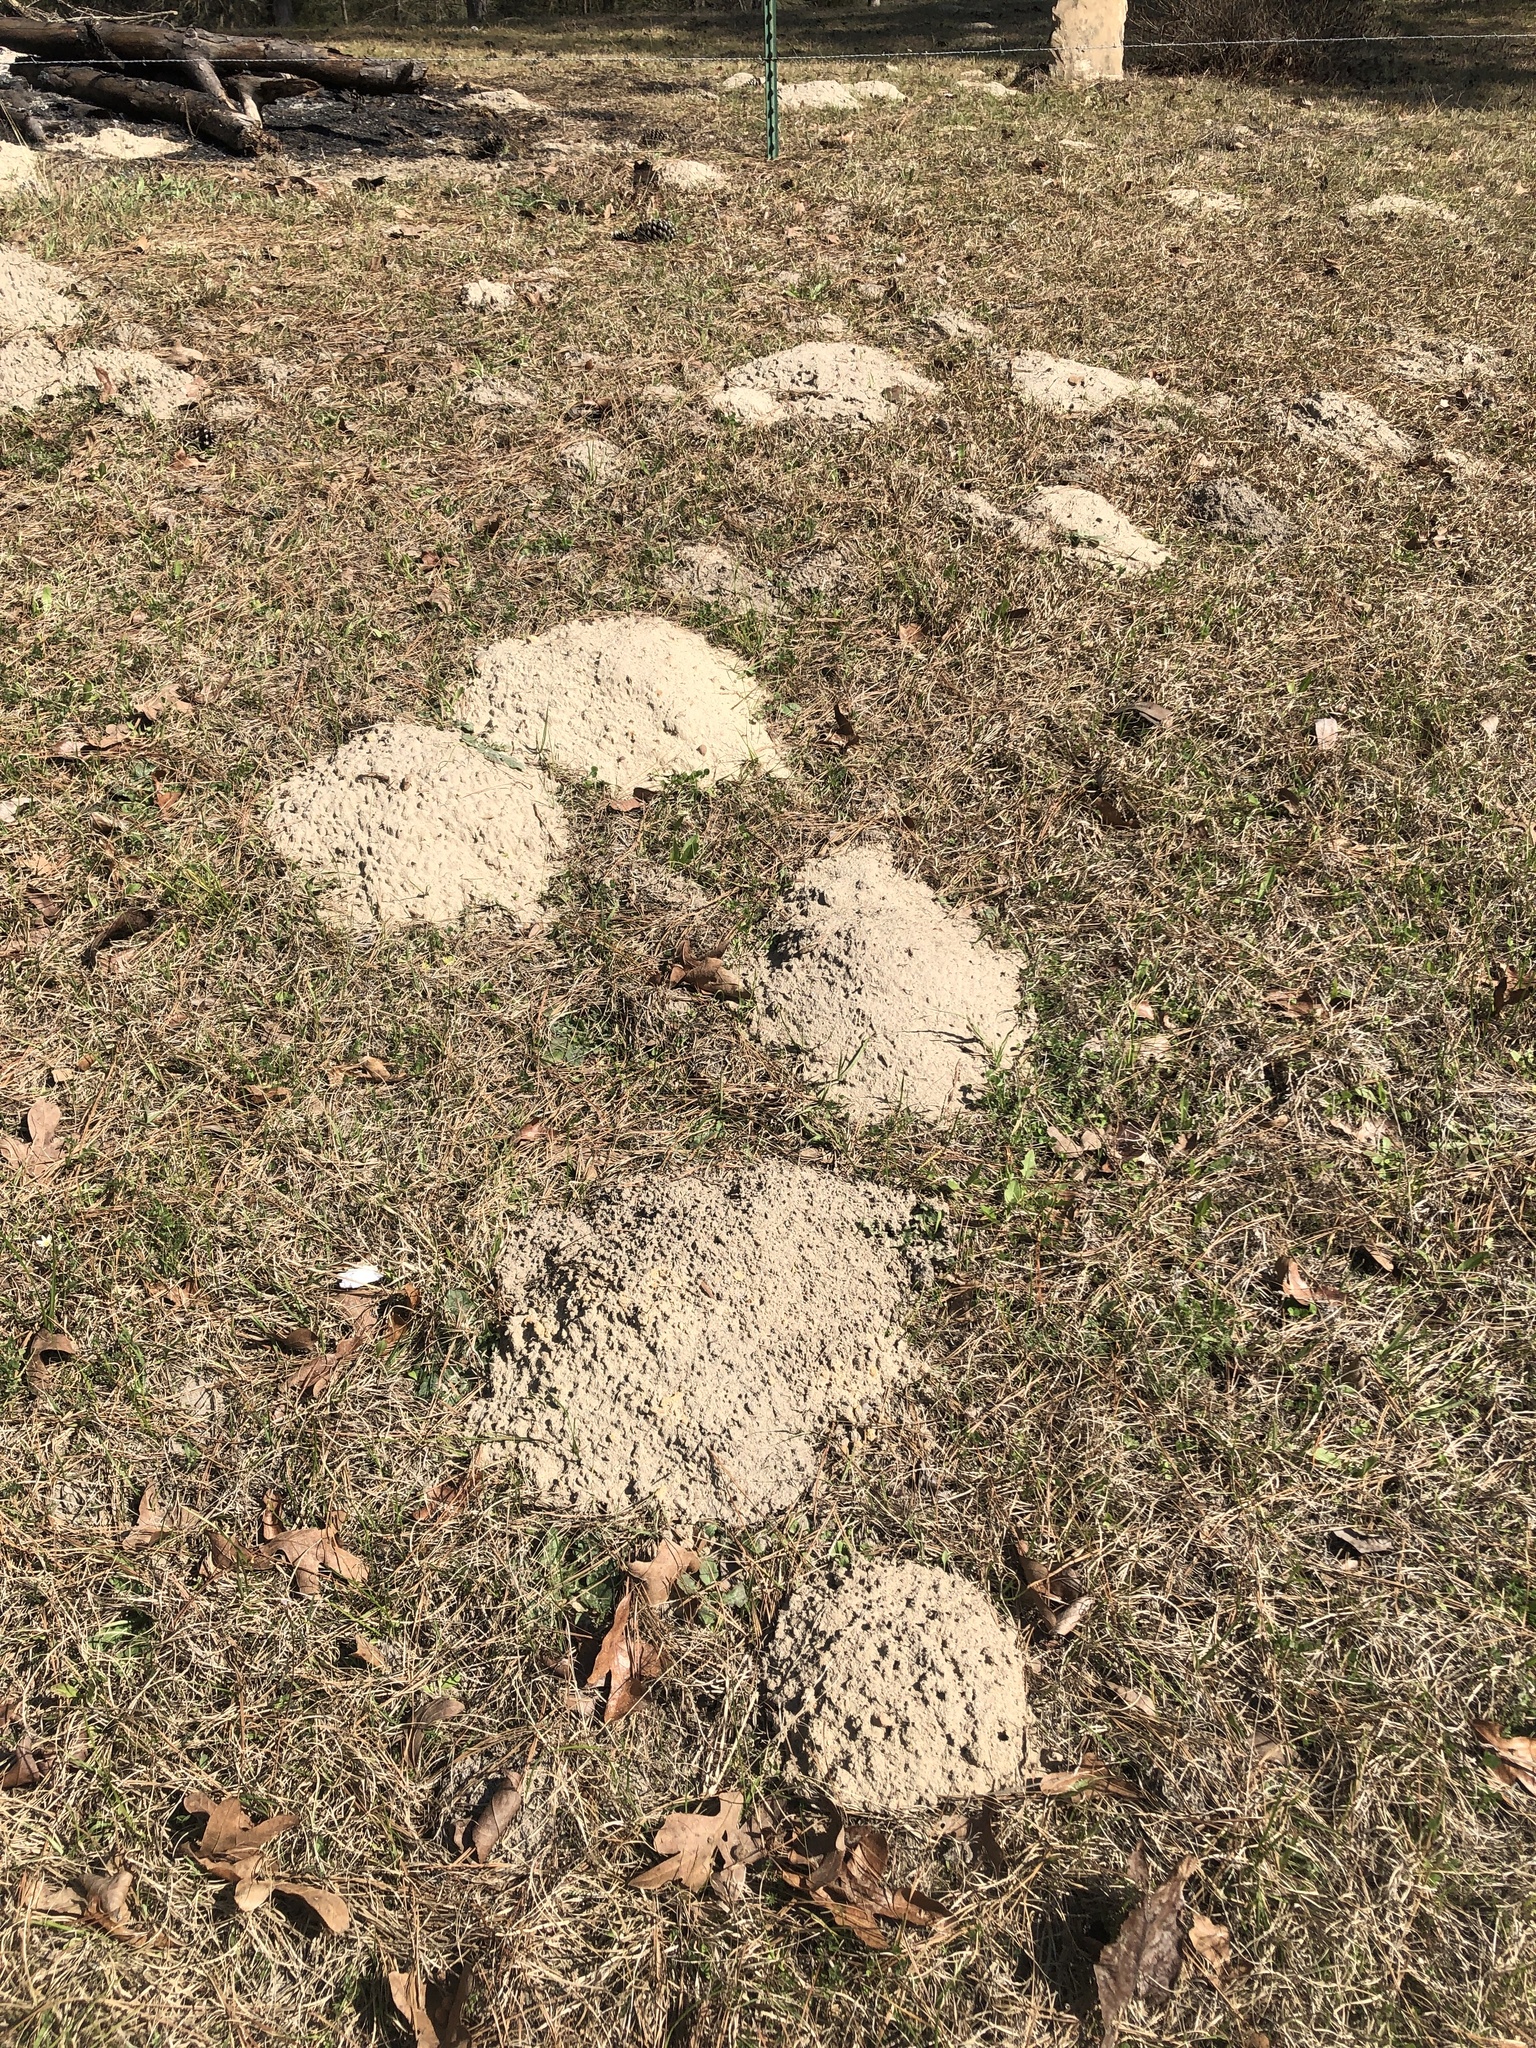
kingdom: Animalia
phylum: Chordata
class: Mammalia
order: Rodentia
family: Geomyidae
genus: Geomys
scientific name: Geomys breviceps
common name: Baird's pocket gopher
